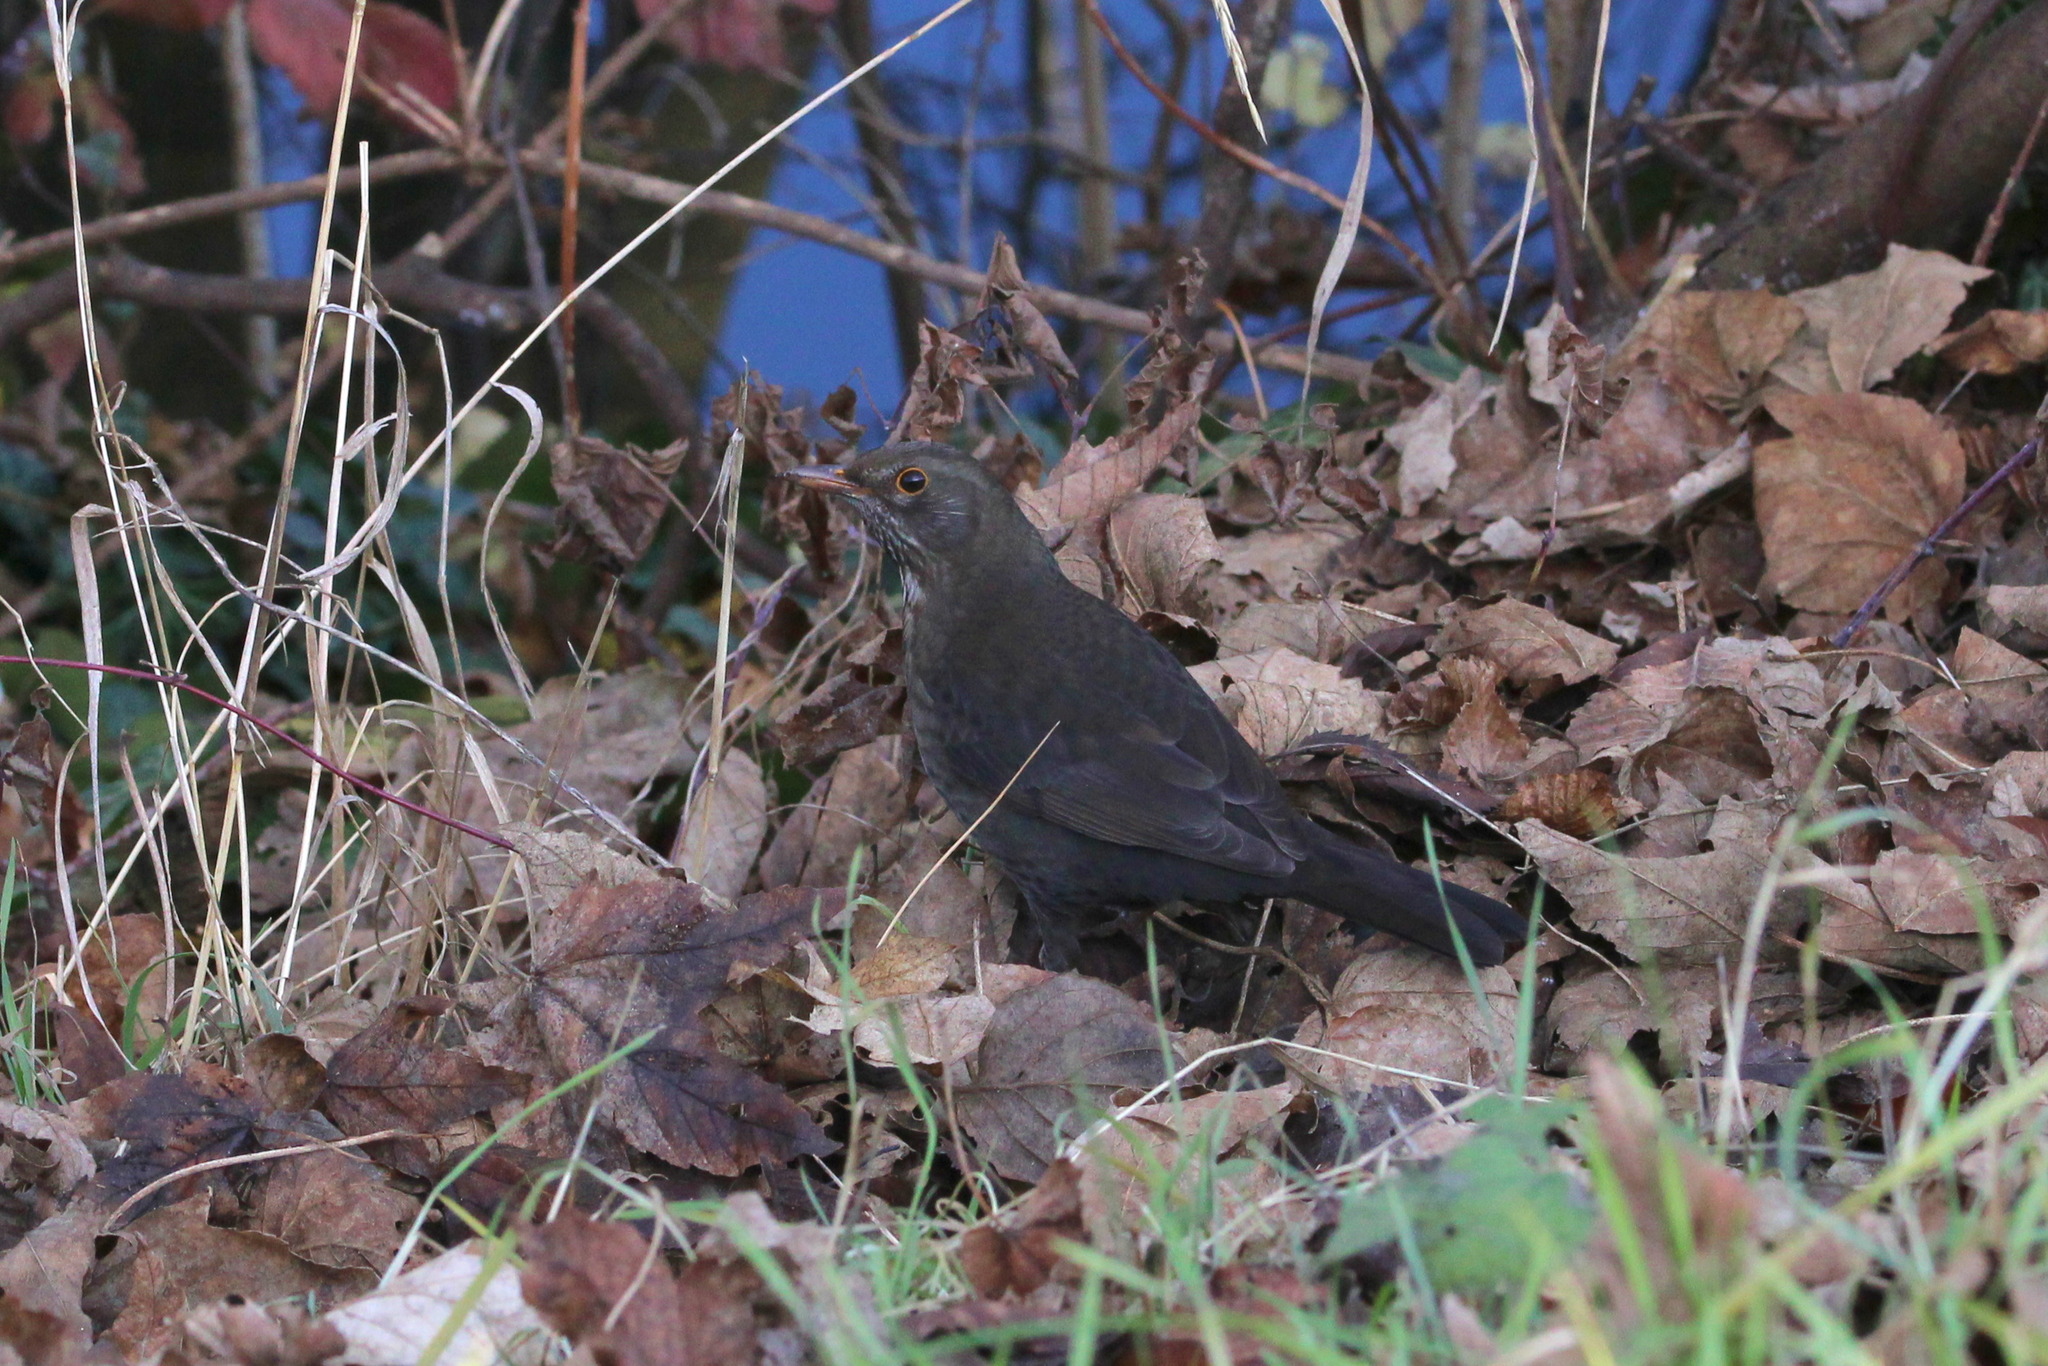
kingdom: Animalia
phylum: Chordata
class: Aves
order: Passeriformes
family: Turdidae
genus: Turdus
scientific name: Turdus merula
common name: Common blackbird
